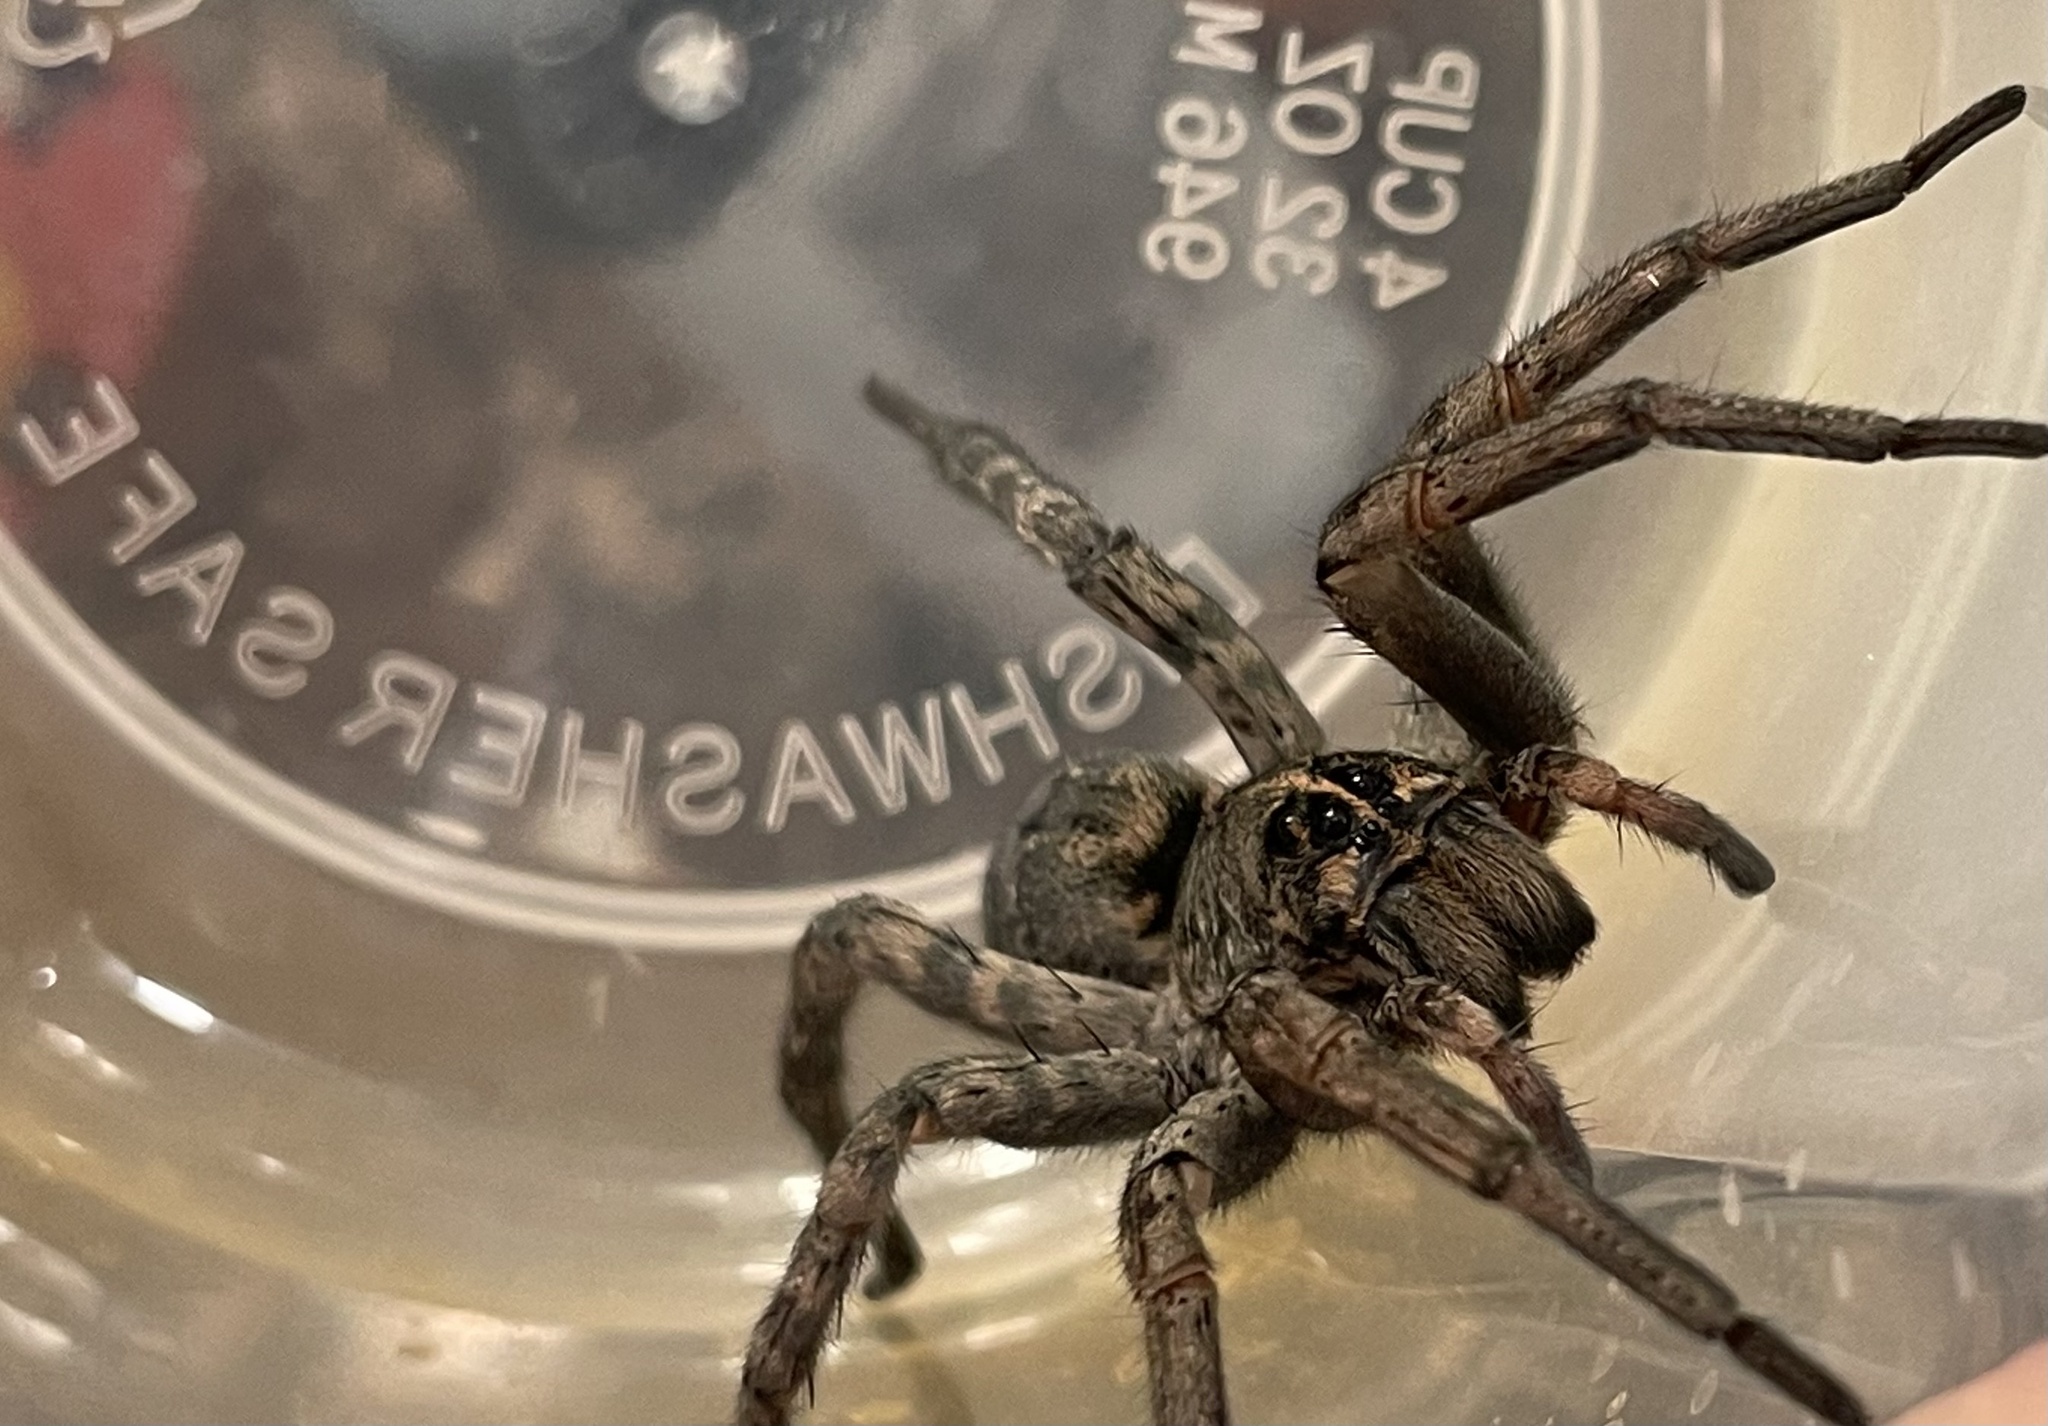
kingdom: Animalia
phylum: Arthropoda
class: Arachnida
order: Araneae
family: Lycosidae
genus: Tigrosa
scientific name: Tigrosa
